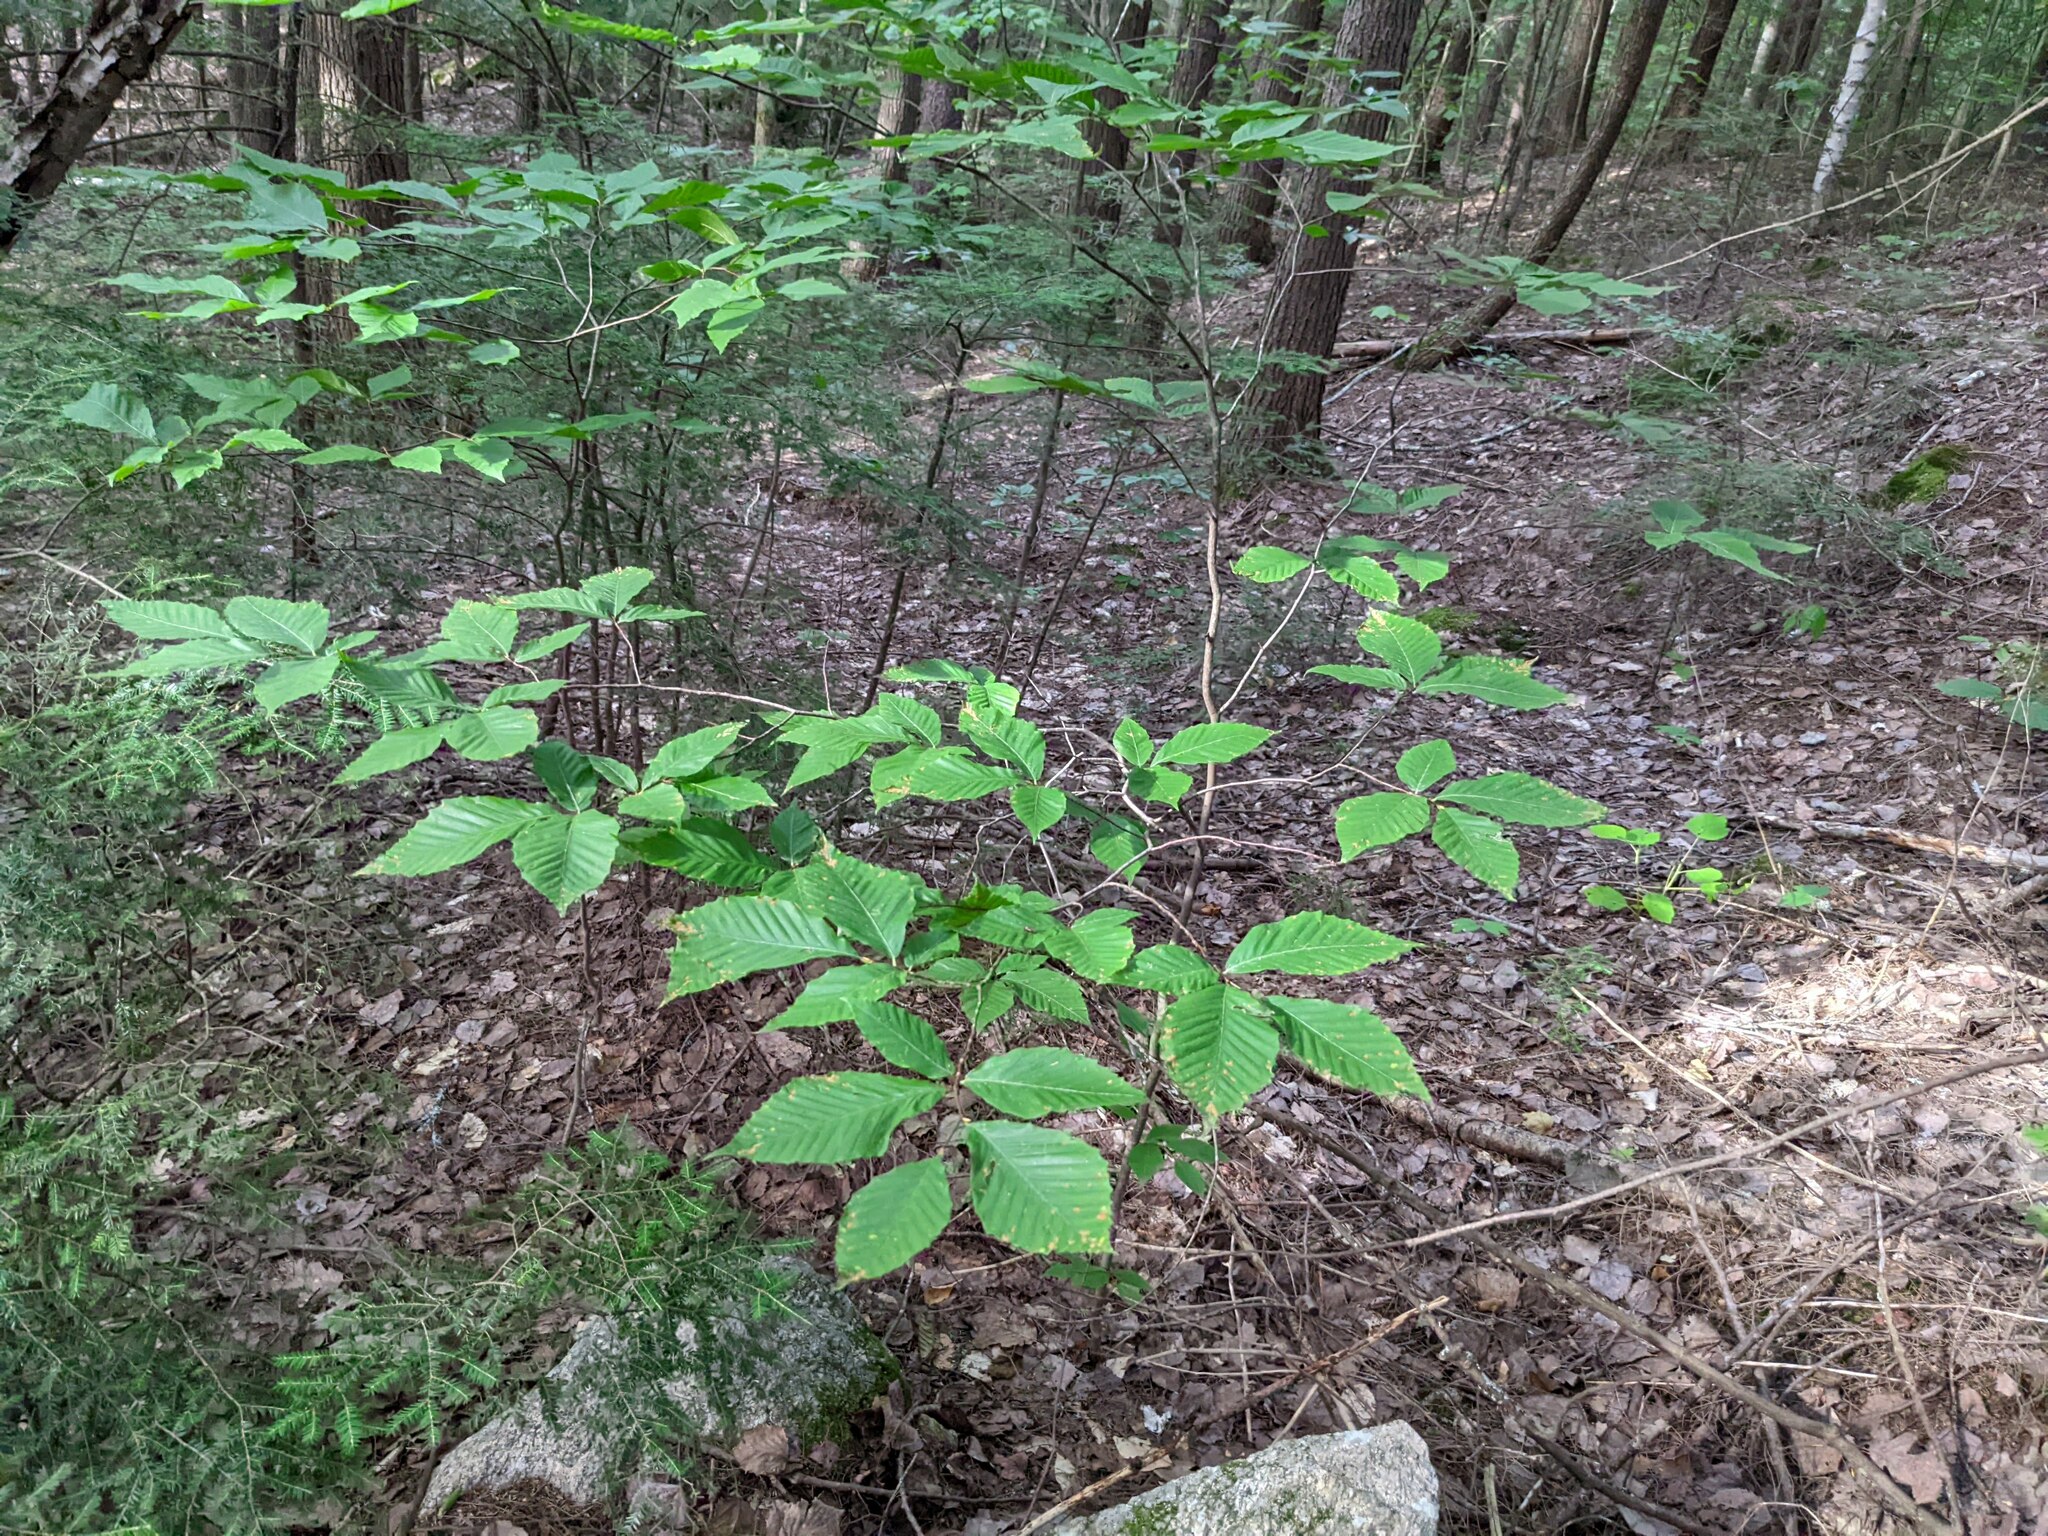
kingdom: Plantae
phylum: Tracheophyta
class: Magnoliopsida
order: Fagales
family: Fagaceae
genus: Fagus
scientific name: Fagus grandifolia
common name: American beech
